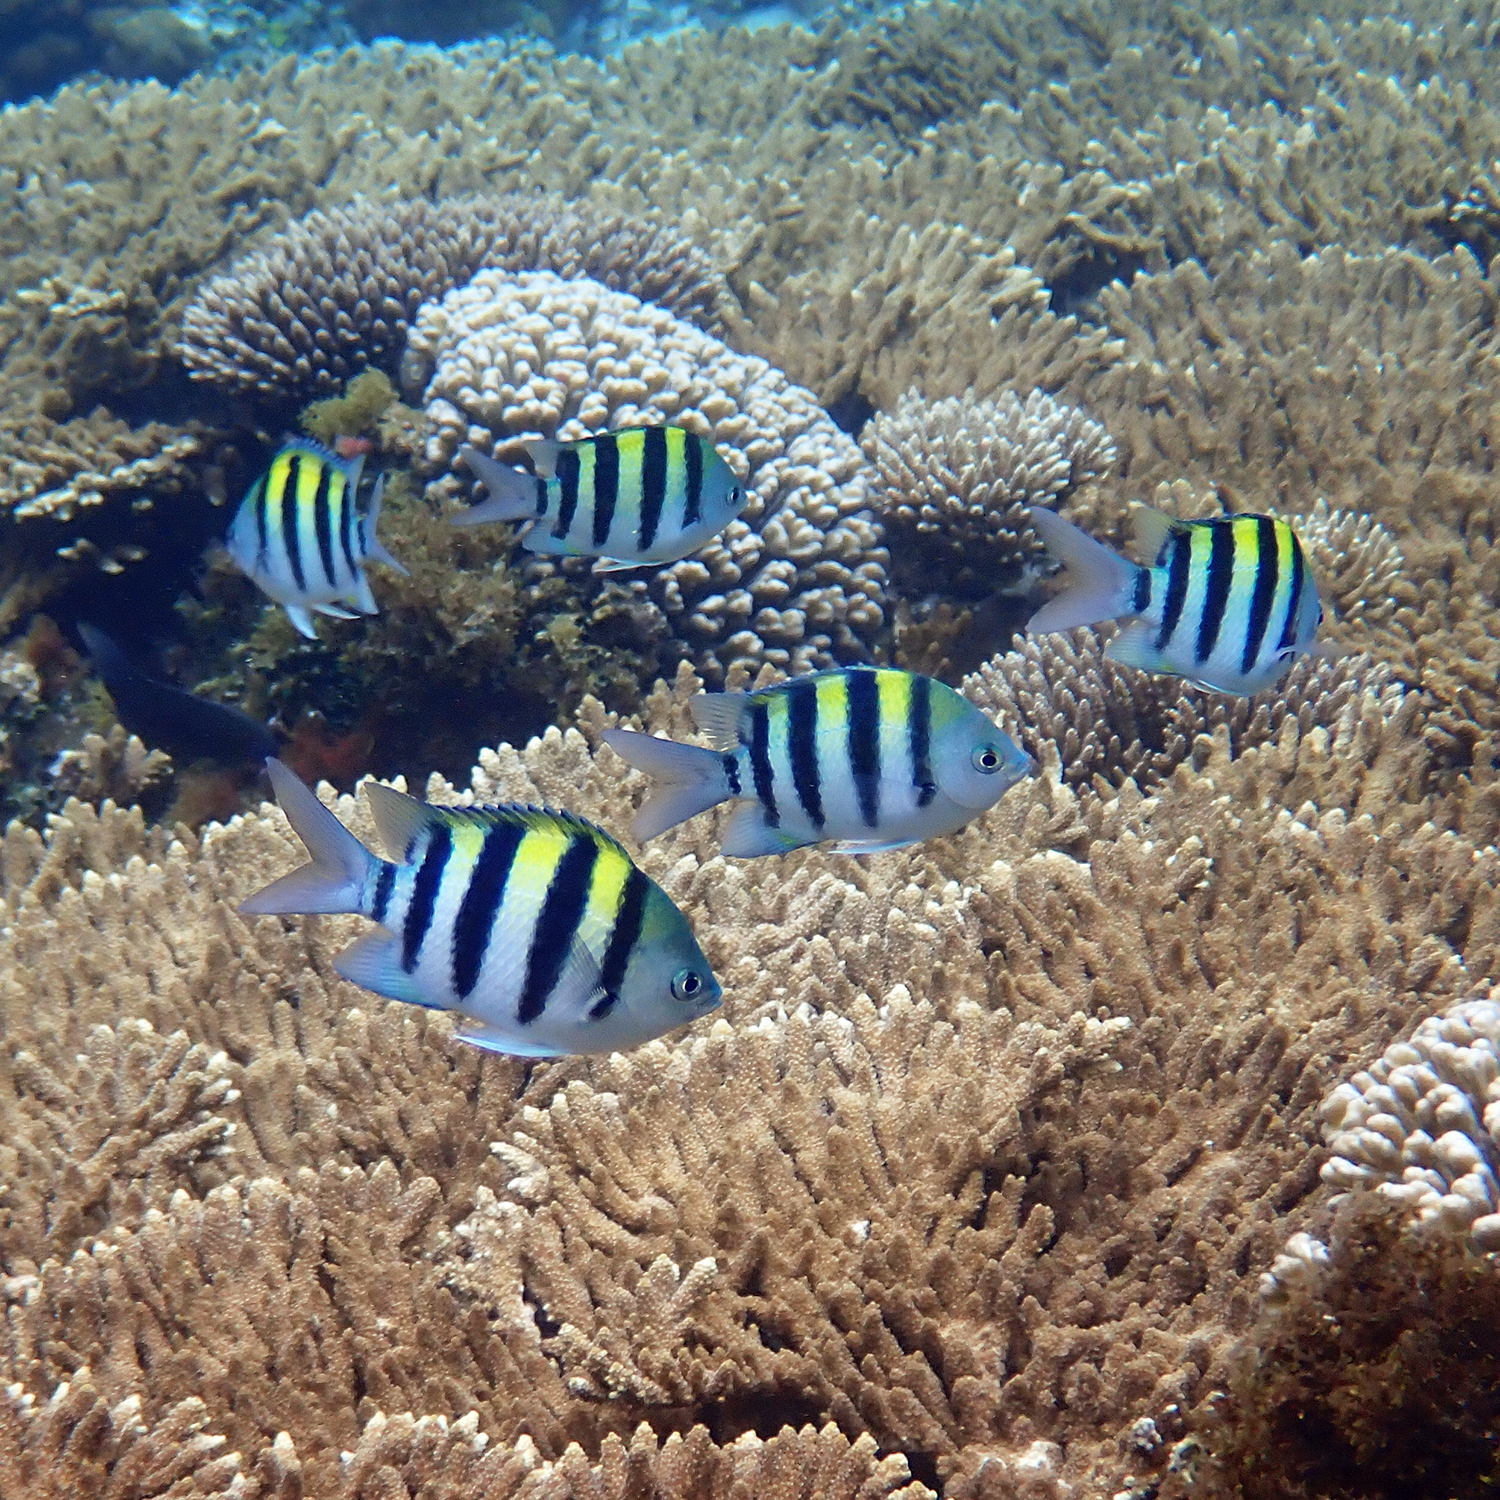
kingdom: Animalia
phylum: Chordata
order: Perciformes
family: Pomacentridae
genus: Abudefduf
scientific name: Abudefduf vaigiensis
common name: Indo-pacific sergeant
